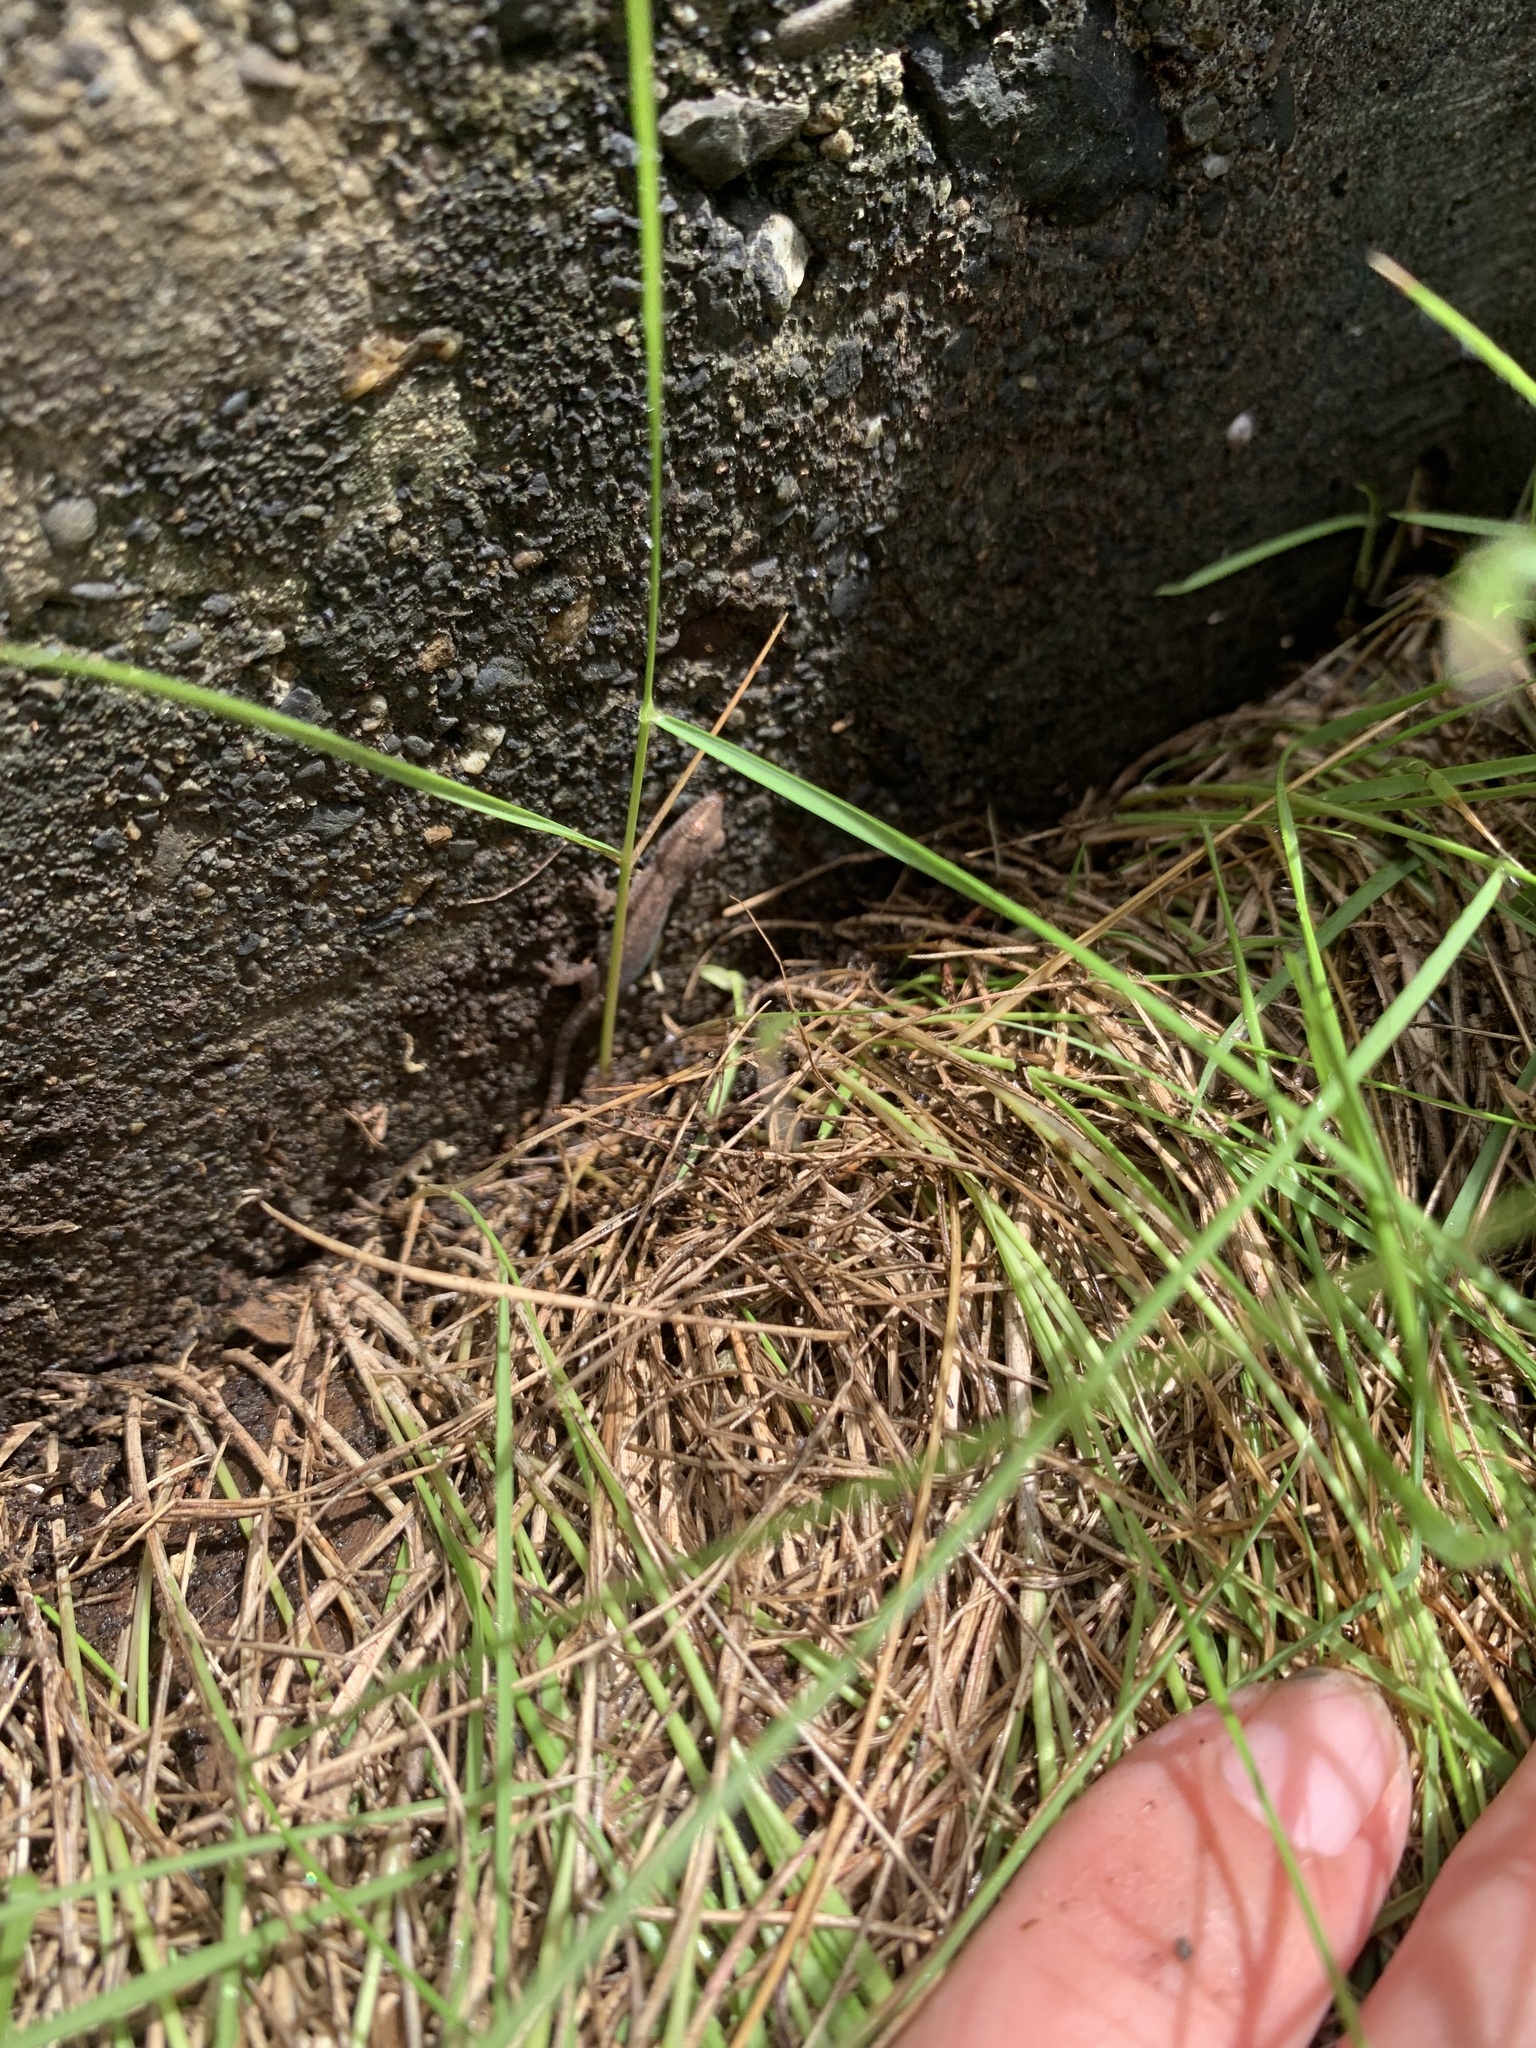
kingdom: Animalia
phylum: Chordata
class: Squamata
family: Gekkonidae
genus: Lepidodactylus
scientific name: Lepidodactylus lugubris
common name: Mourning gecko
